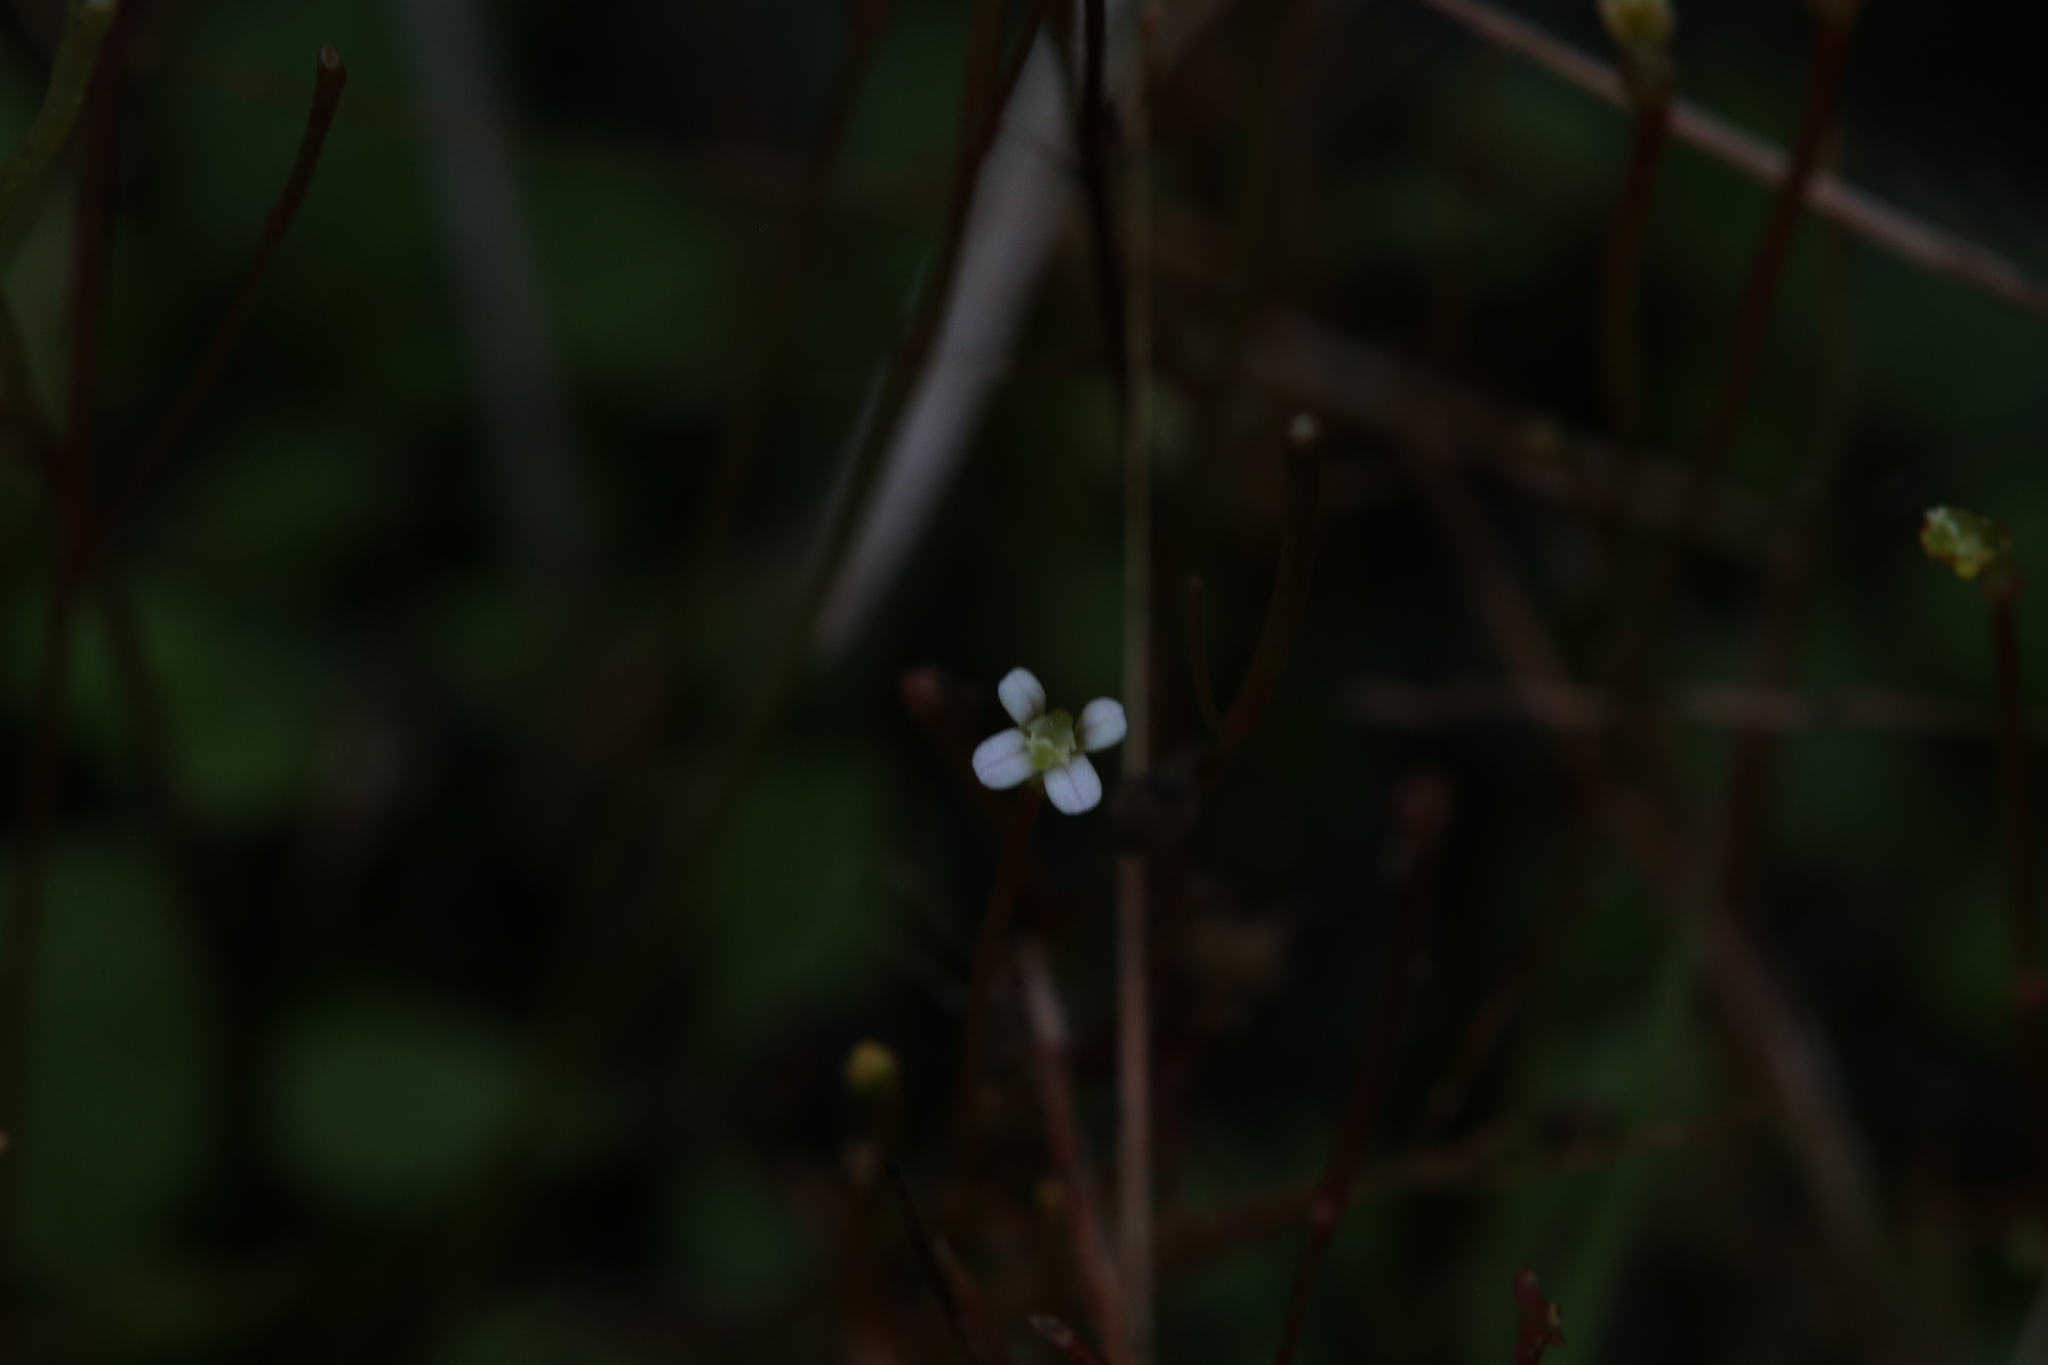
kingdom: Plantae
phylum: Tracheophyta
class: Magnoliopsida
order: Asterales
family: Stylidiaceae
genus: Stylidium
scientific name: Stylidium rotundifolium
